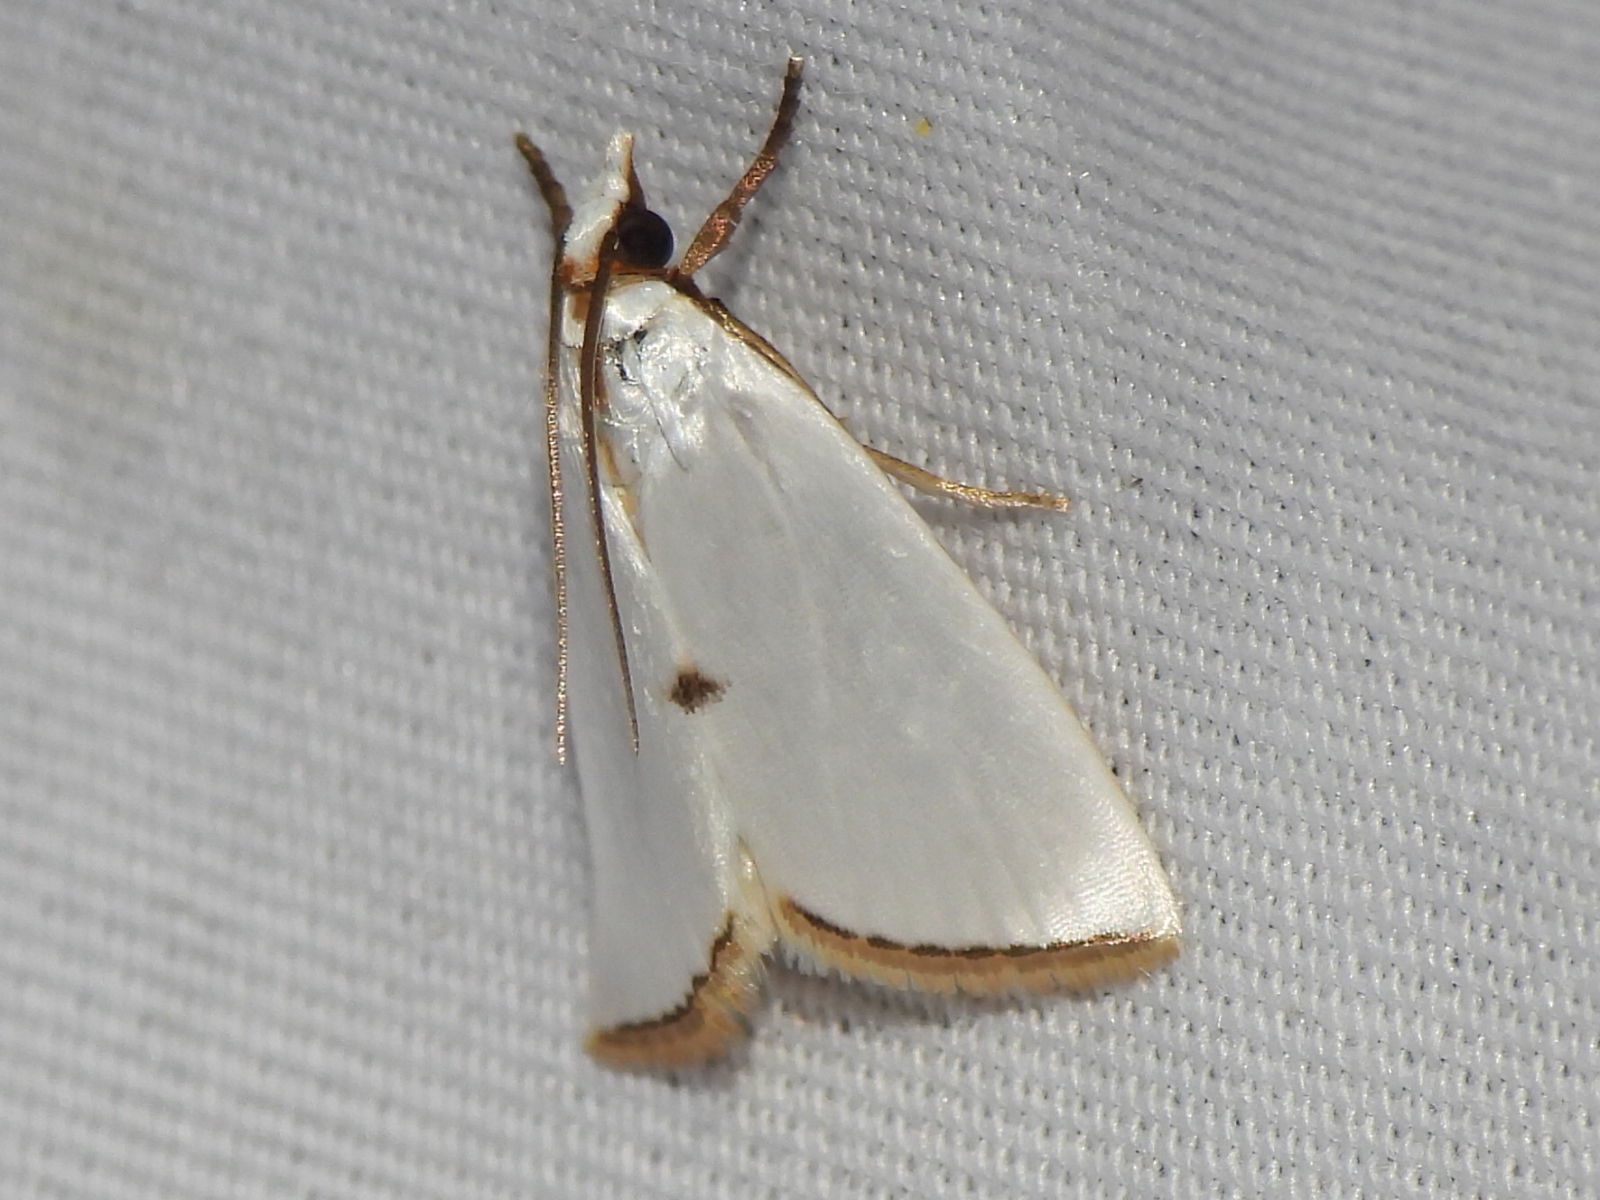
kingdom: Animalia
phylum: Arthropoda
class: Insecta
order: Lepidoptera
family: Crambidae
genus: Argyria
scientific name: Argyria nivalis
